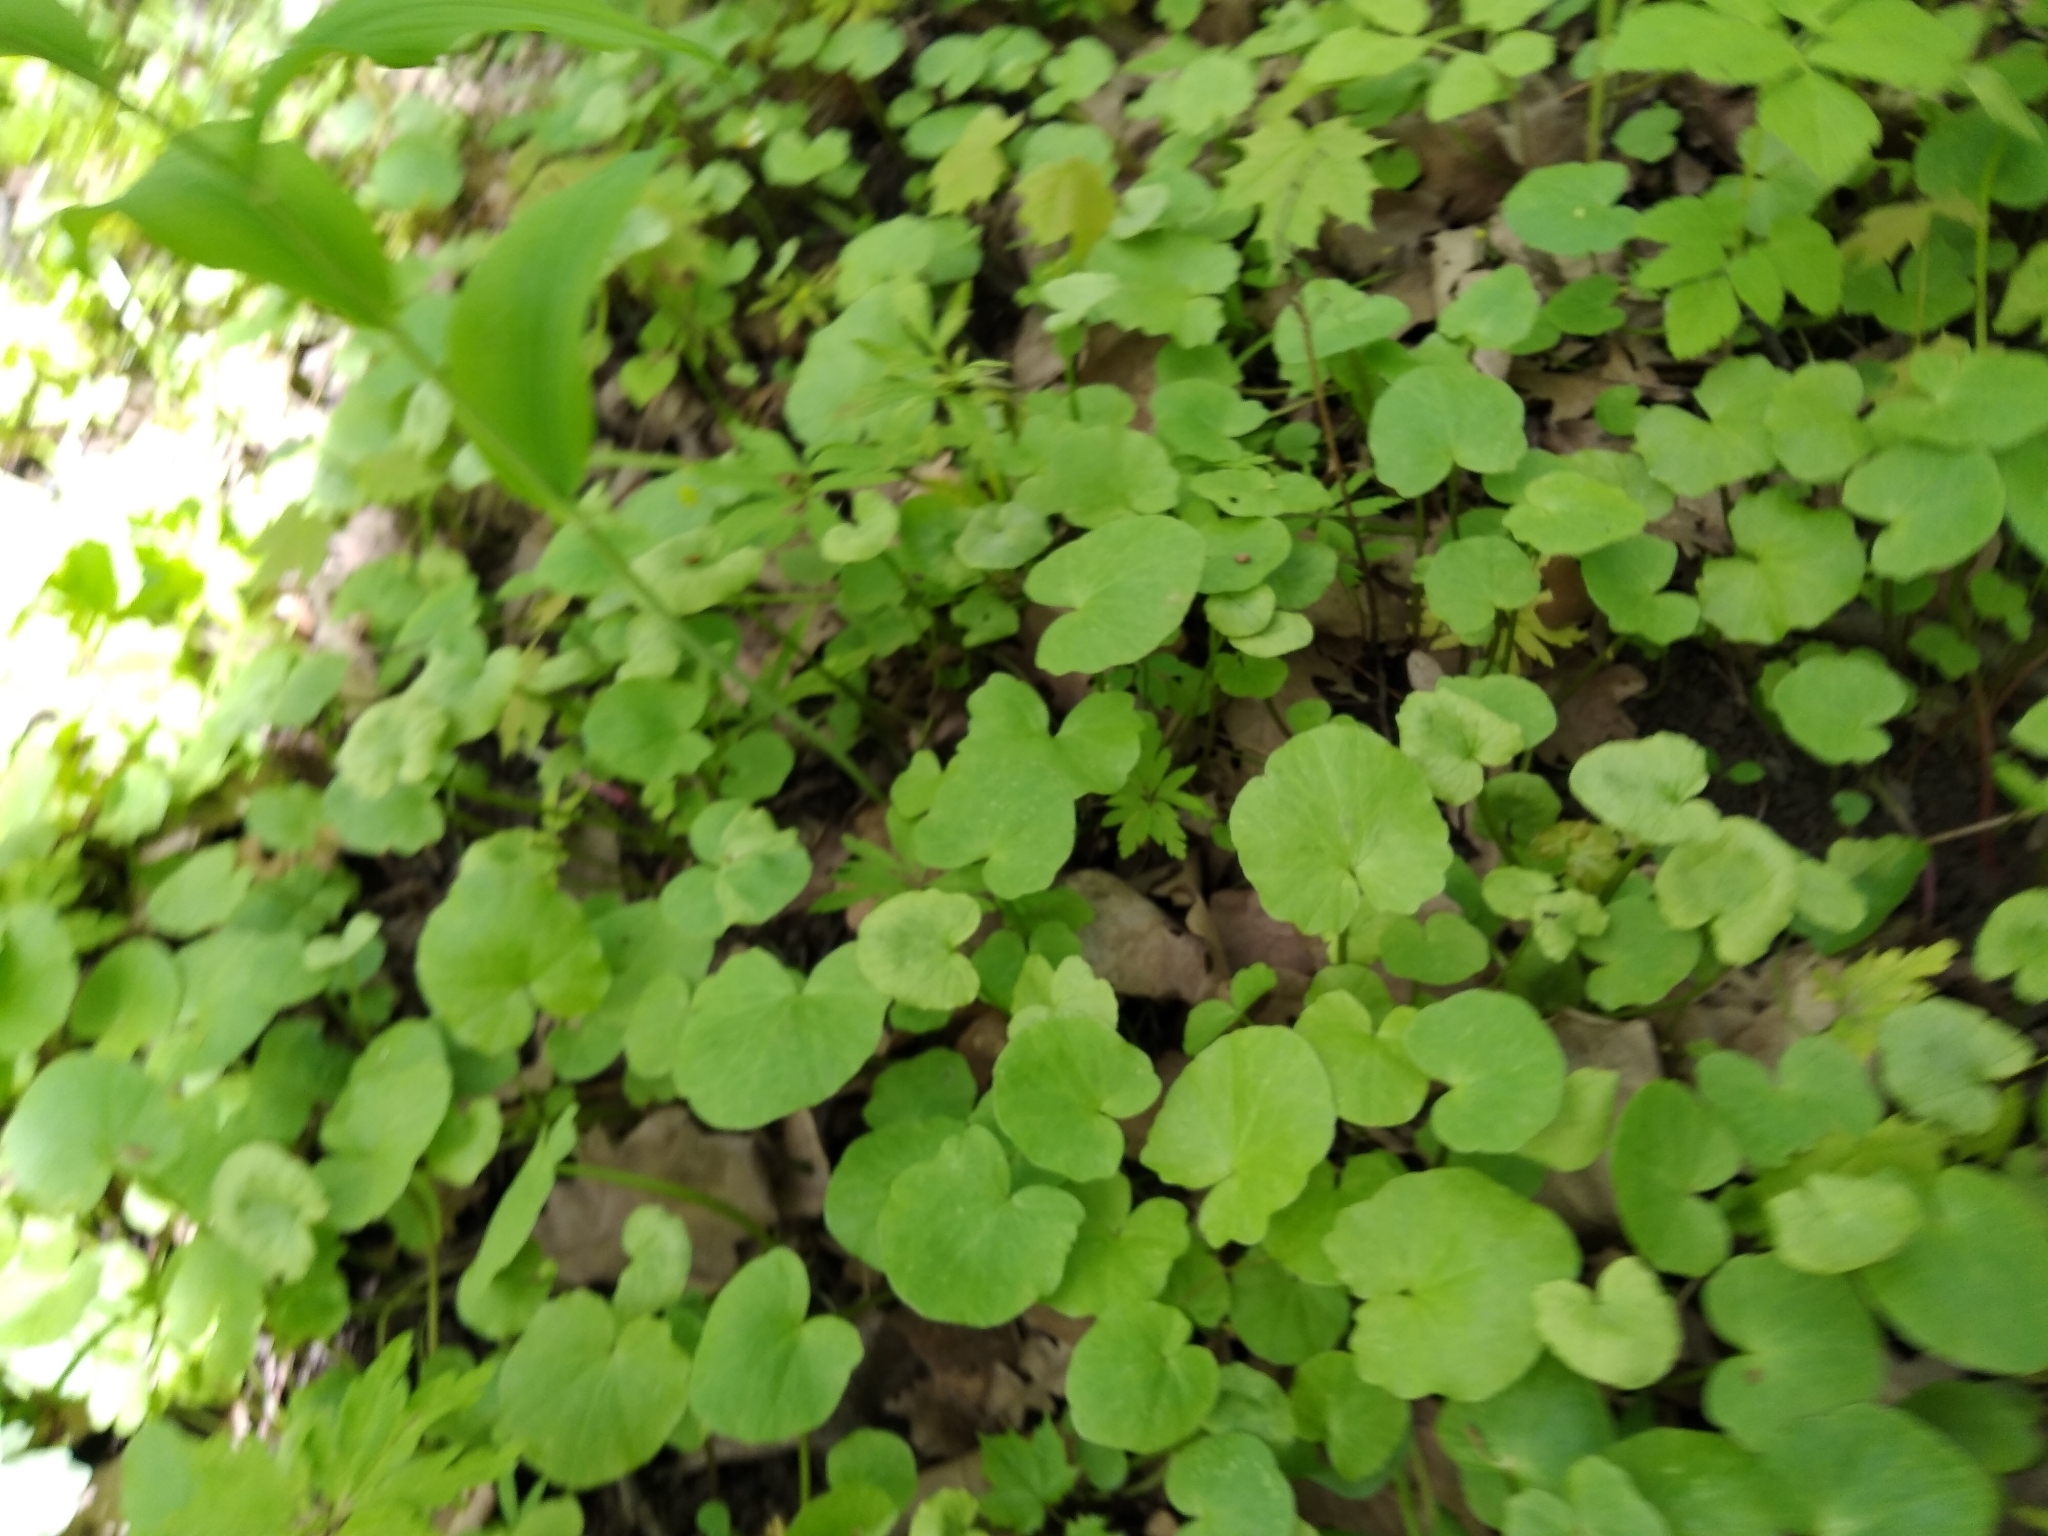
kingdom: Plantae
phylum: Tracheophyta
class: Magnoliopsida
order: Ranunculales
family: Ranunculaceae
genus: Ficaria
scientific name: Ficaria verna
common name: Lesser celandine
